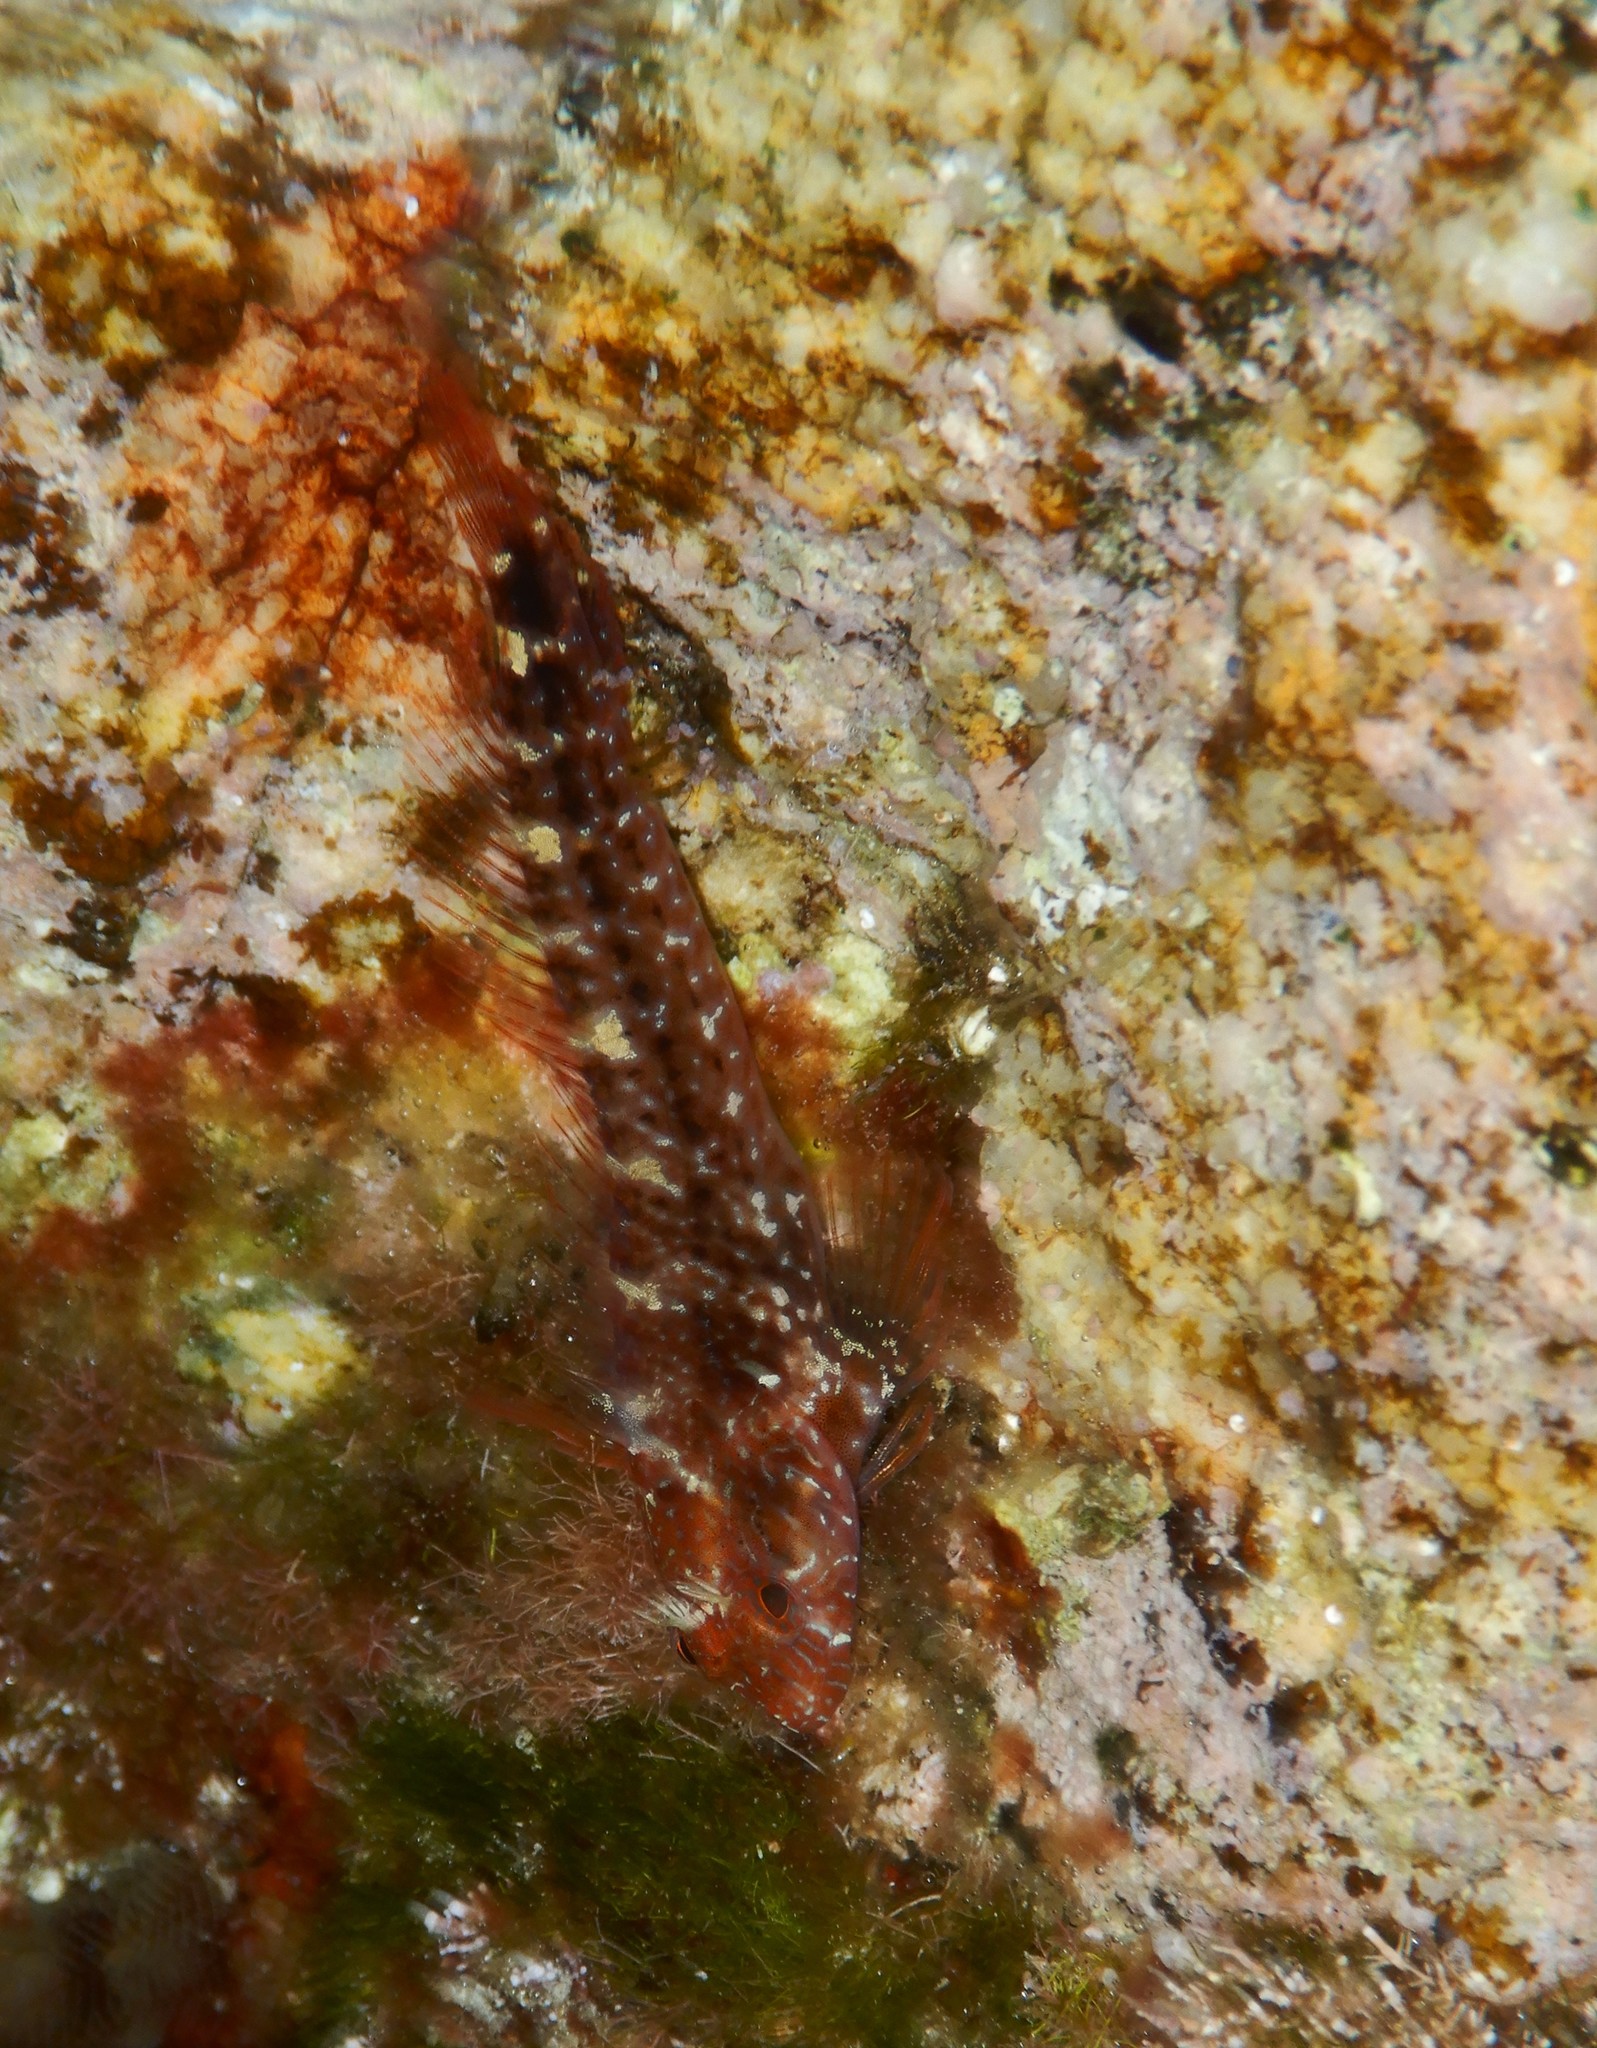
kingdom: Animalia
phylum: Chordata
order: Perciformes
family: Blenniidae
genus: Parablennius
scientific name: Parablennius zvonimiri
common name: Red blenny
